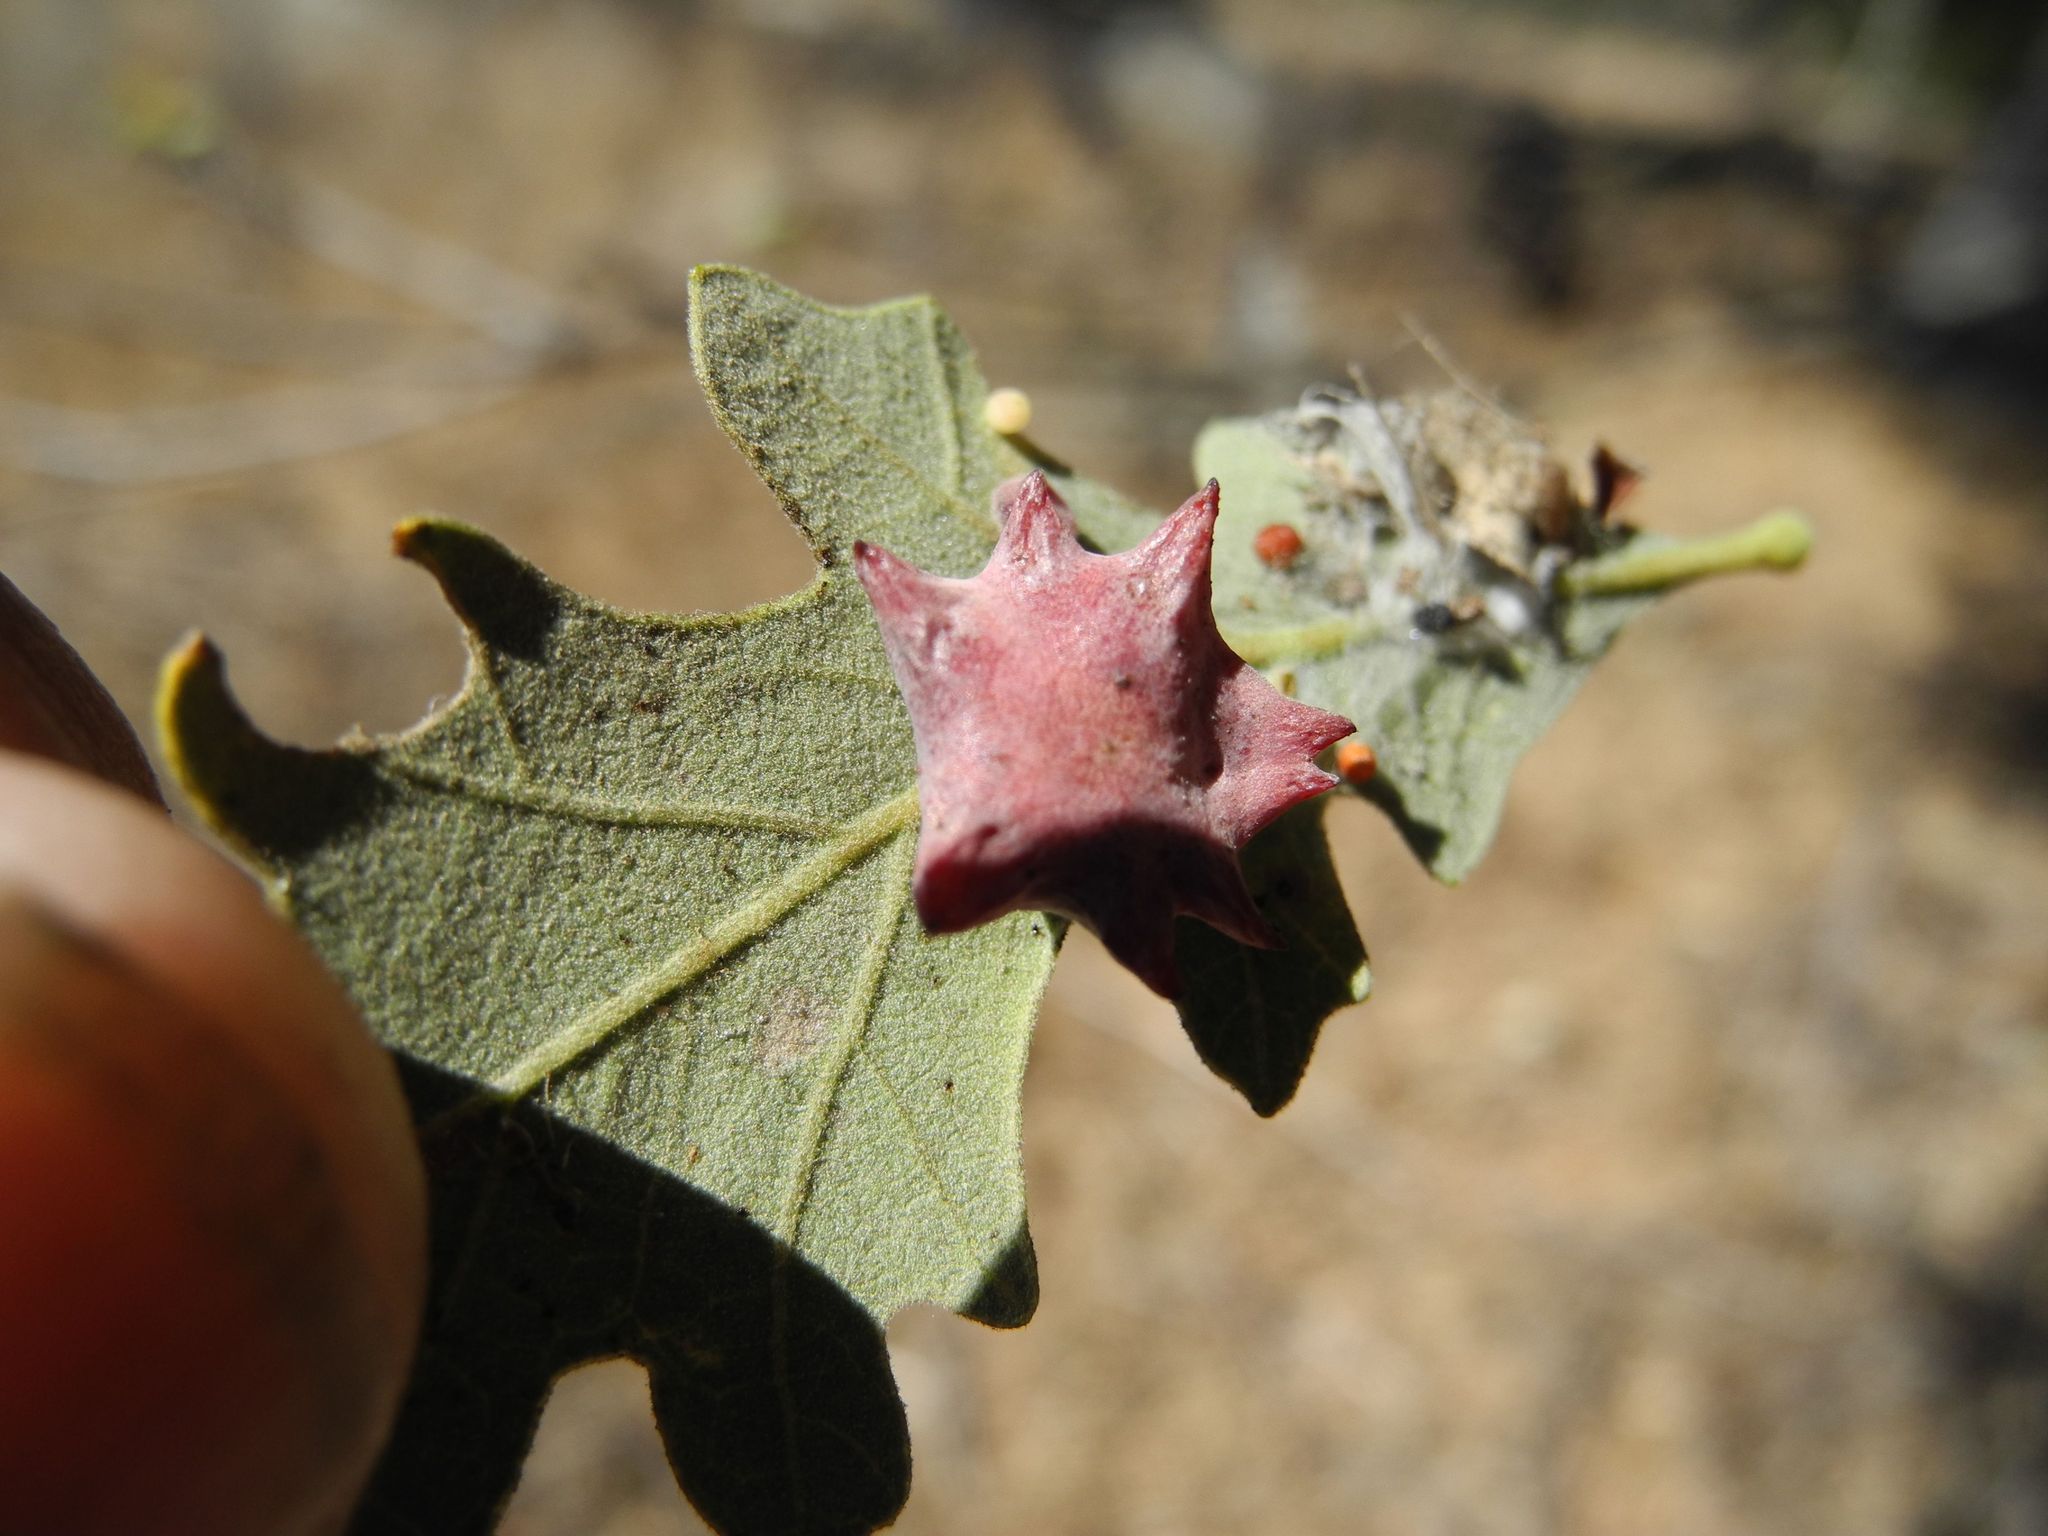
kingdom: Animalia
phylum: Arthropoda
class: Insecta
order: Hymenoptera
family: Cynipidae
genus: Cynips
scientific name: Cynips douglasi
